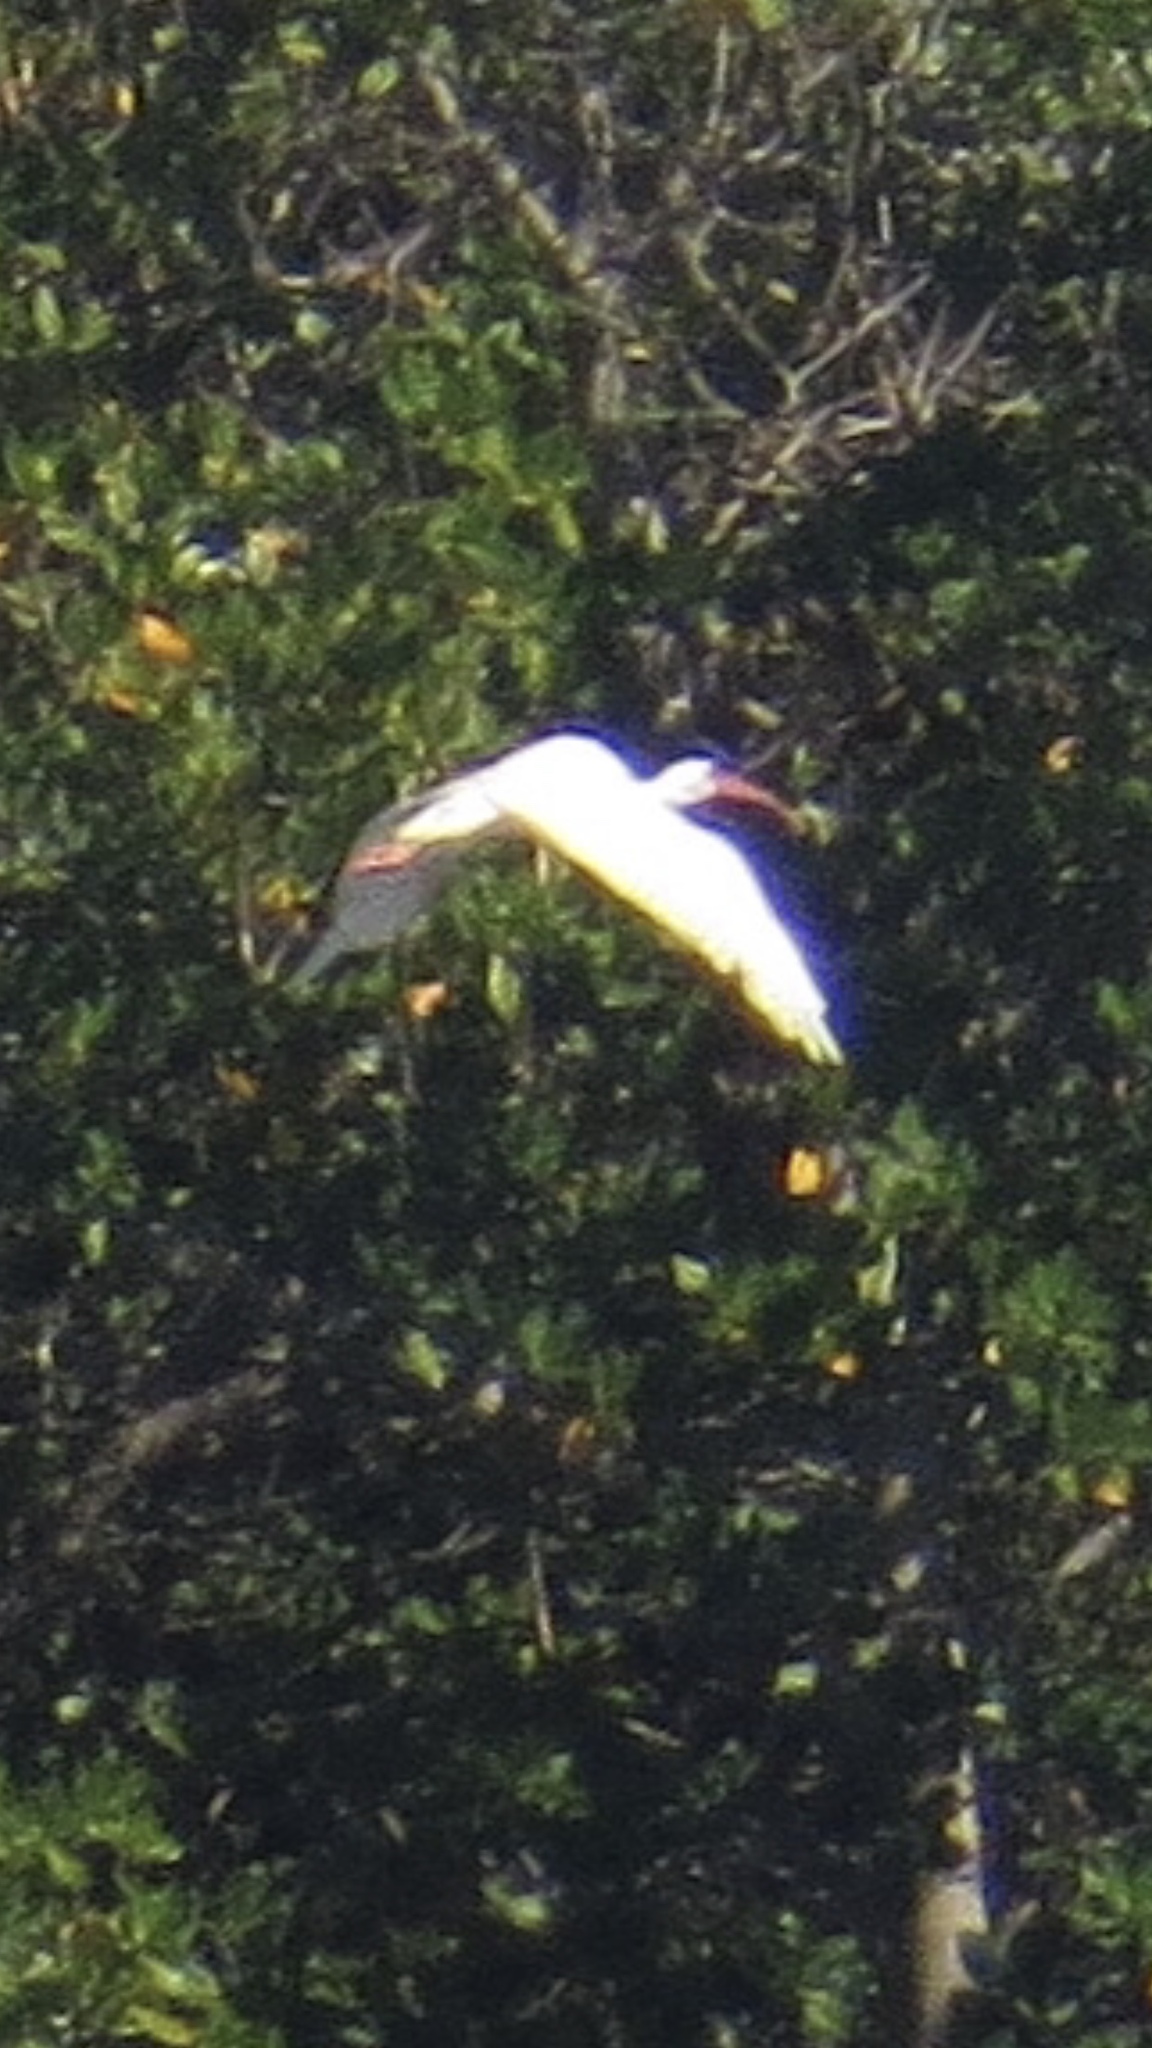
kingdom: Animalia
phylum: Chordata
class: Aves
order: Pelecaniformes
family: Threskiornithidae
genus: Eudocimus
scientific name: Eudocimus albus
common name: White ibis
